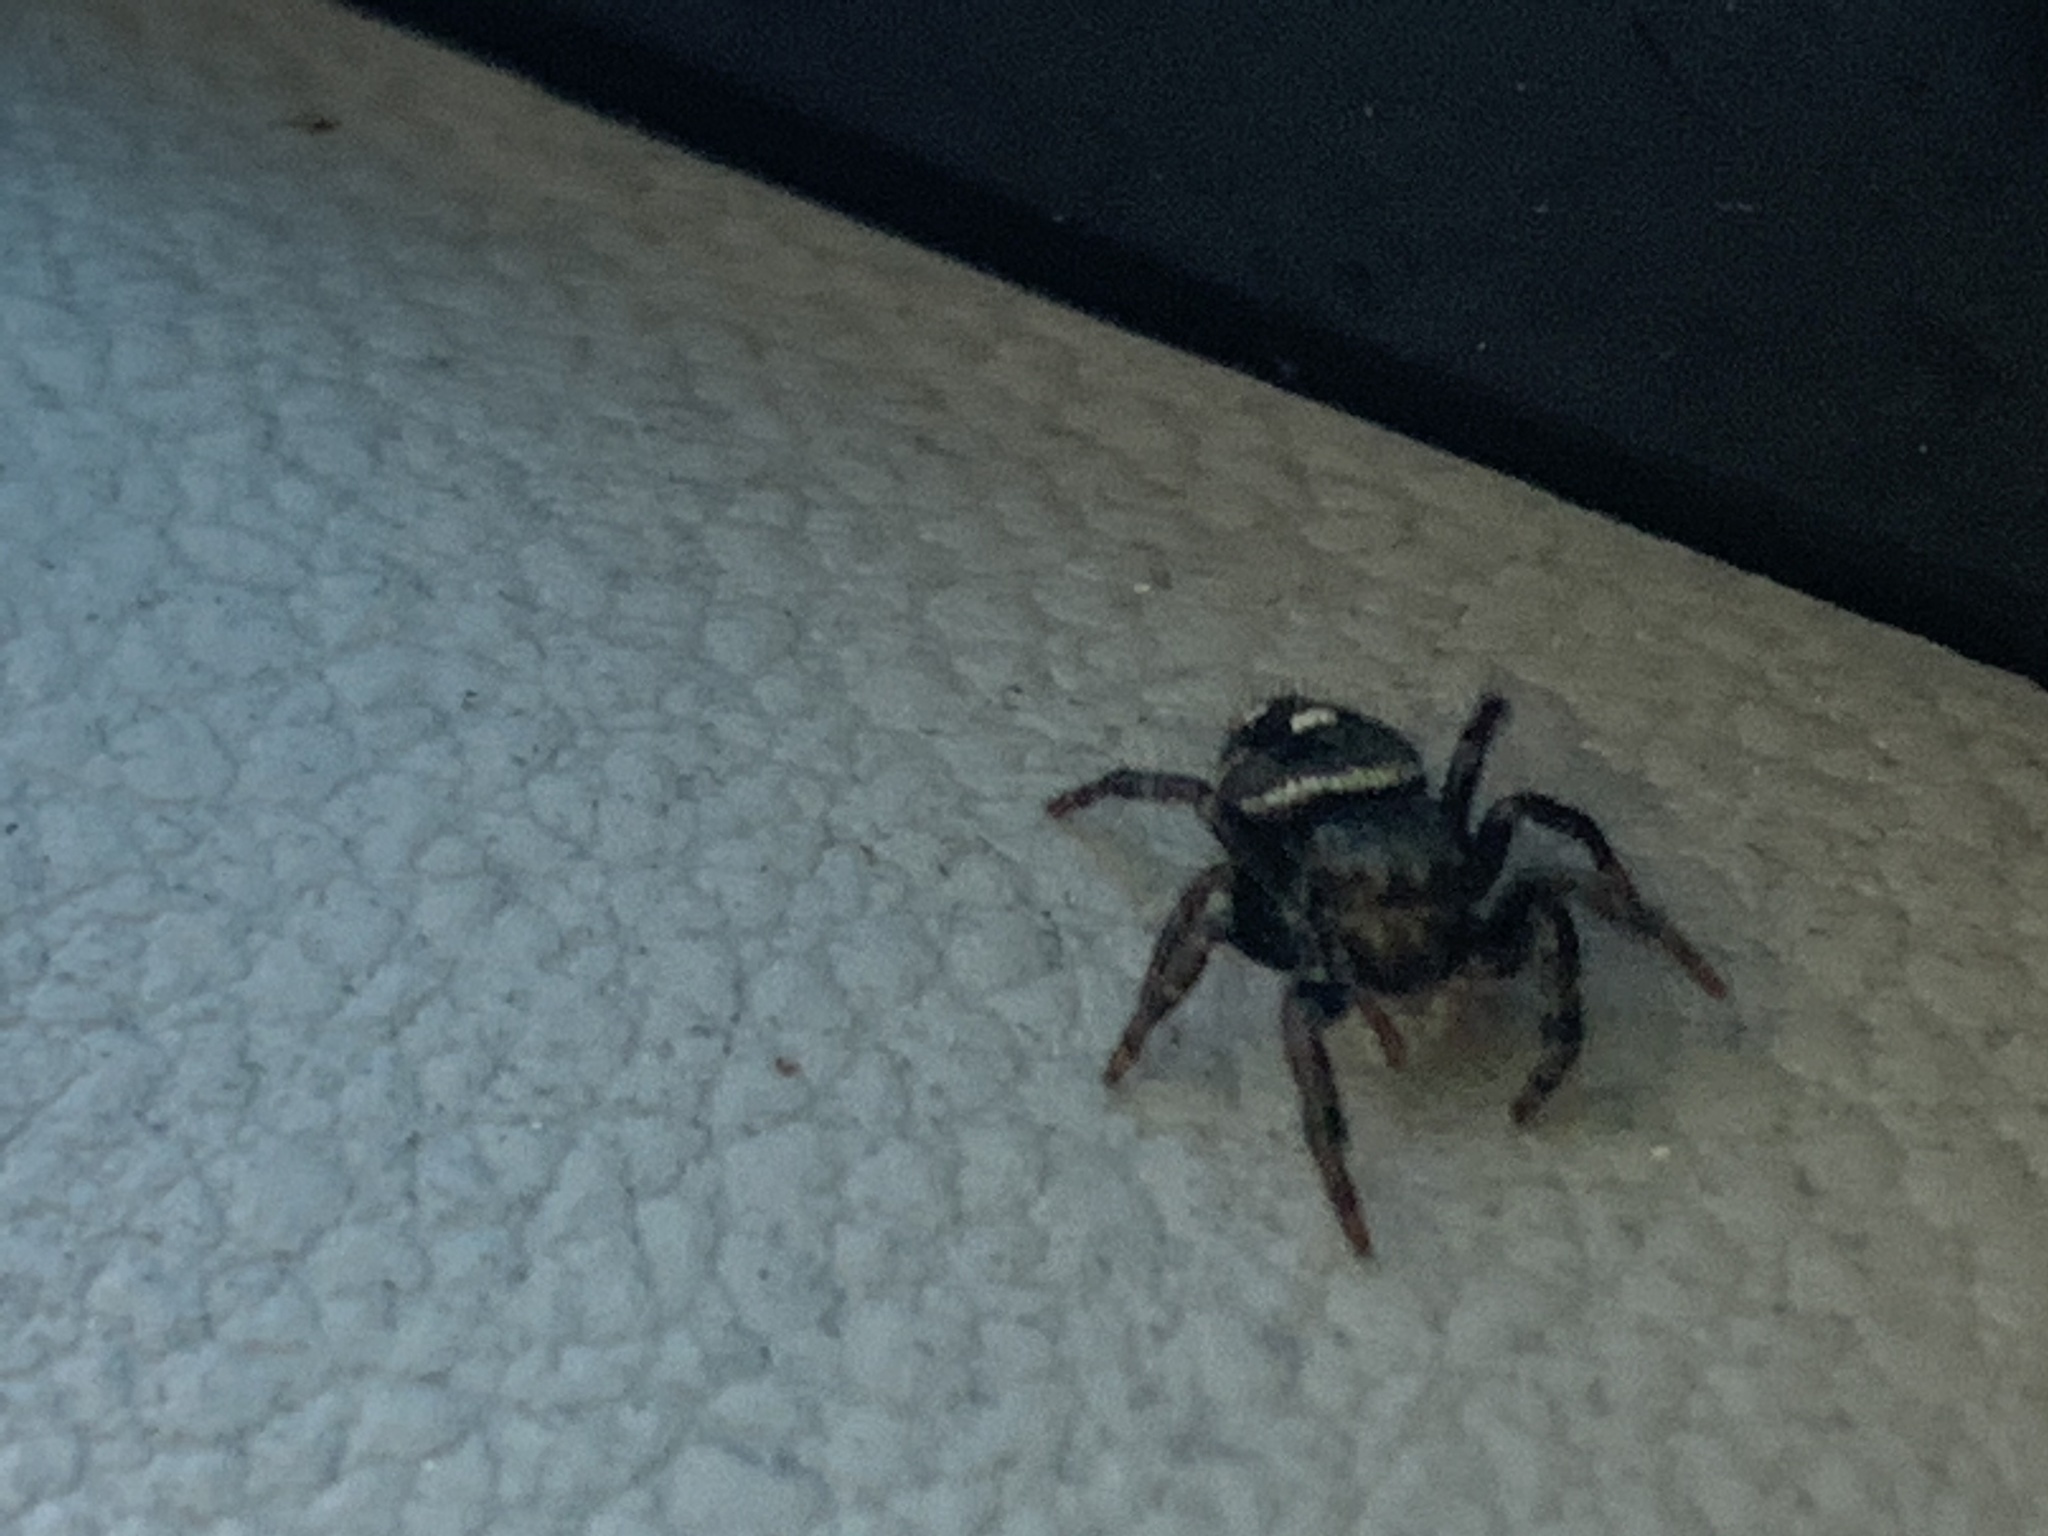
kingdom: Animalia
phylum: Arthropoda
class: Arachnida
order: Araneae
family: Salticidae
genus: Phidippus
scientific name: Phidippus audax
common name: Bold jumper
